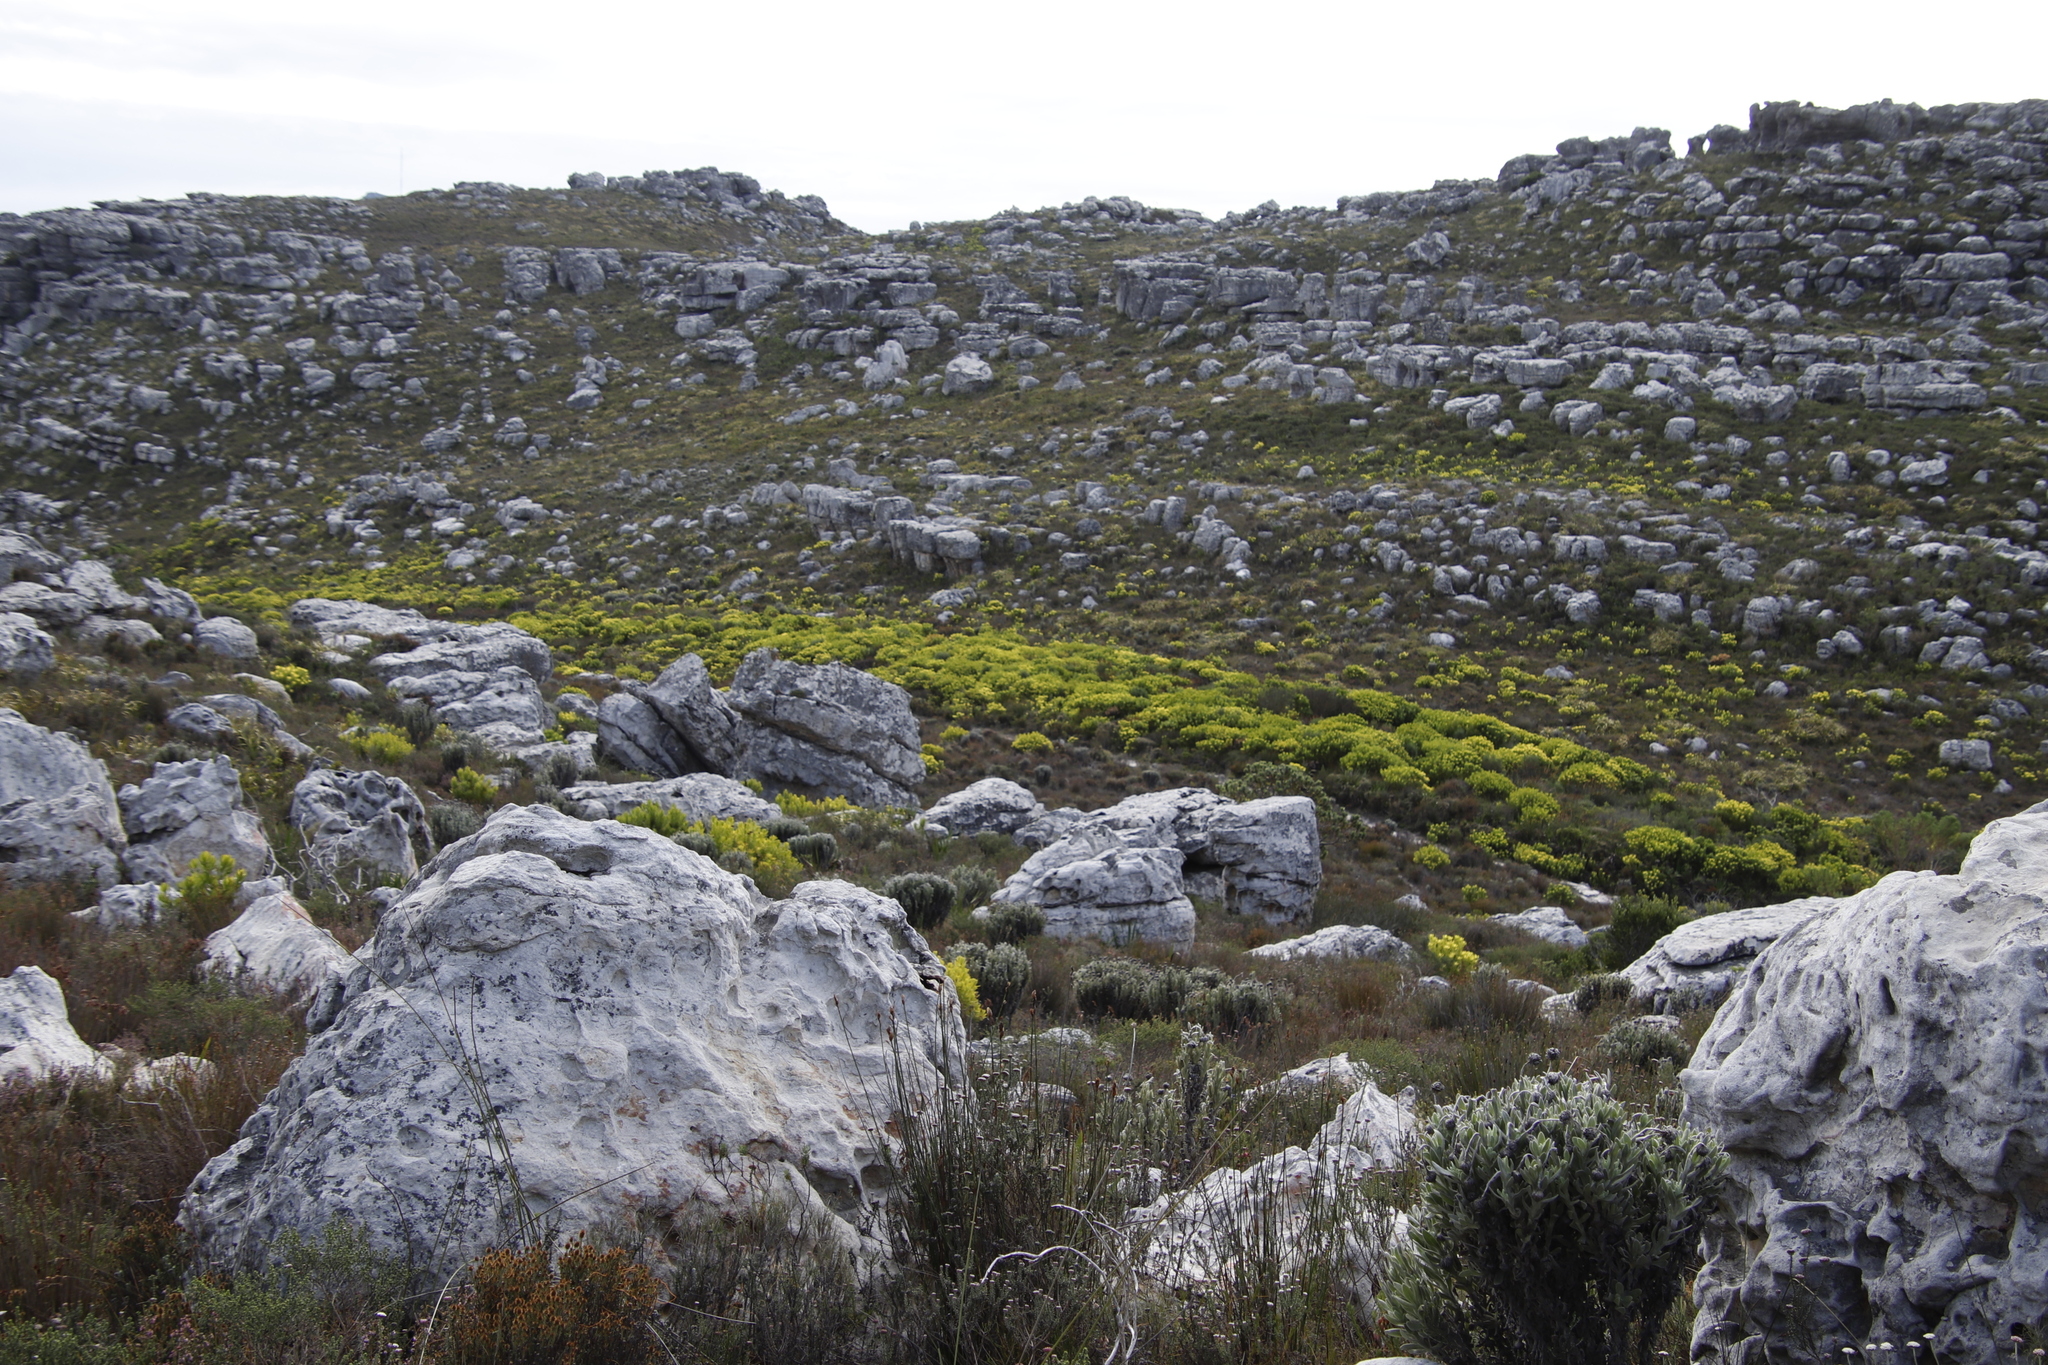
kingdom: Plantae
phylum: Tracheophyta
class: Magnoliopsida
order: Proteales
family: Proteaceae
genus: Leucadendron
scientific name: Leucadendron laureolum
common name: Golden sunshinebush
